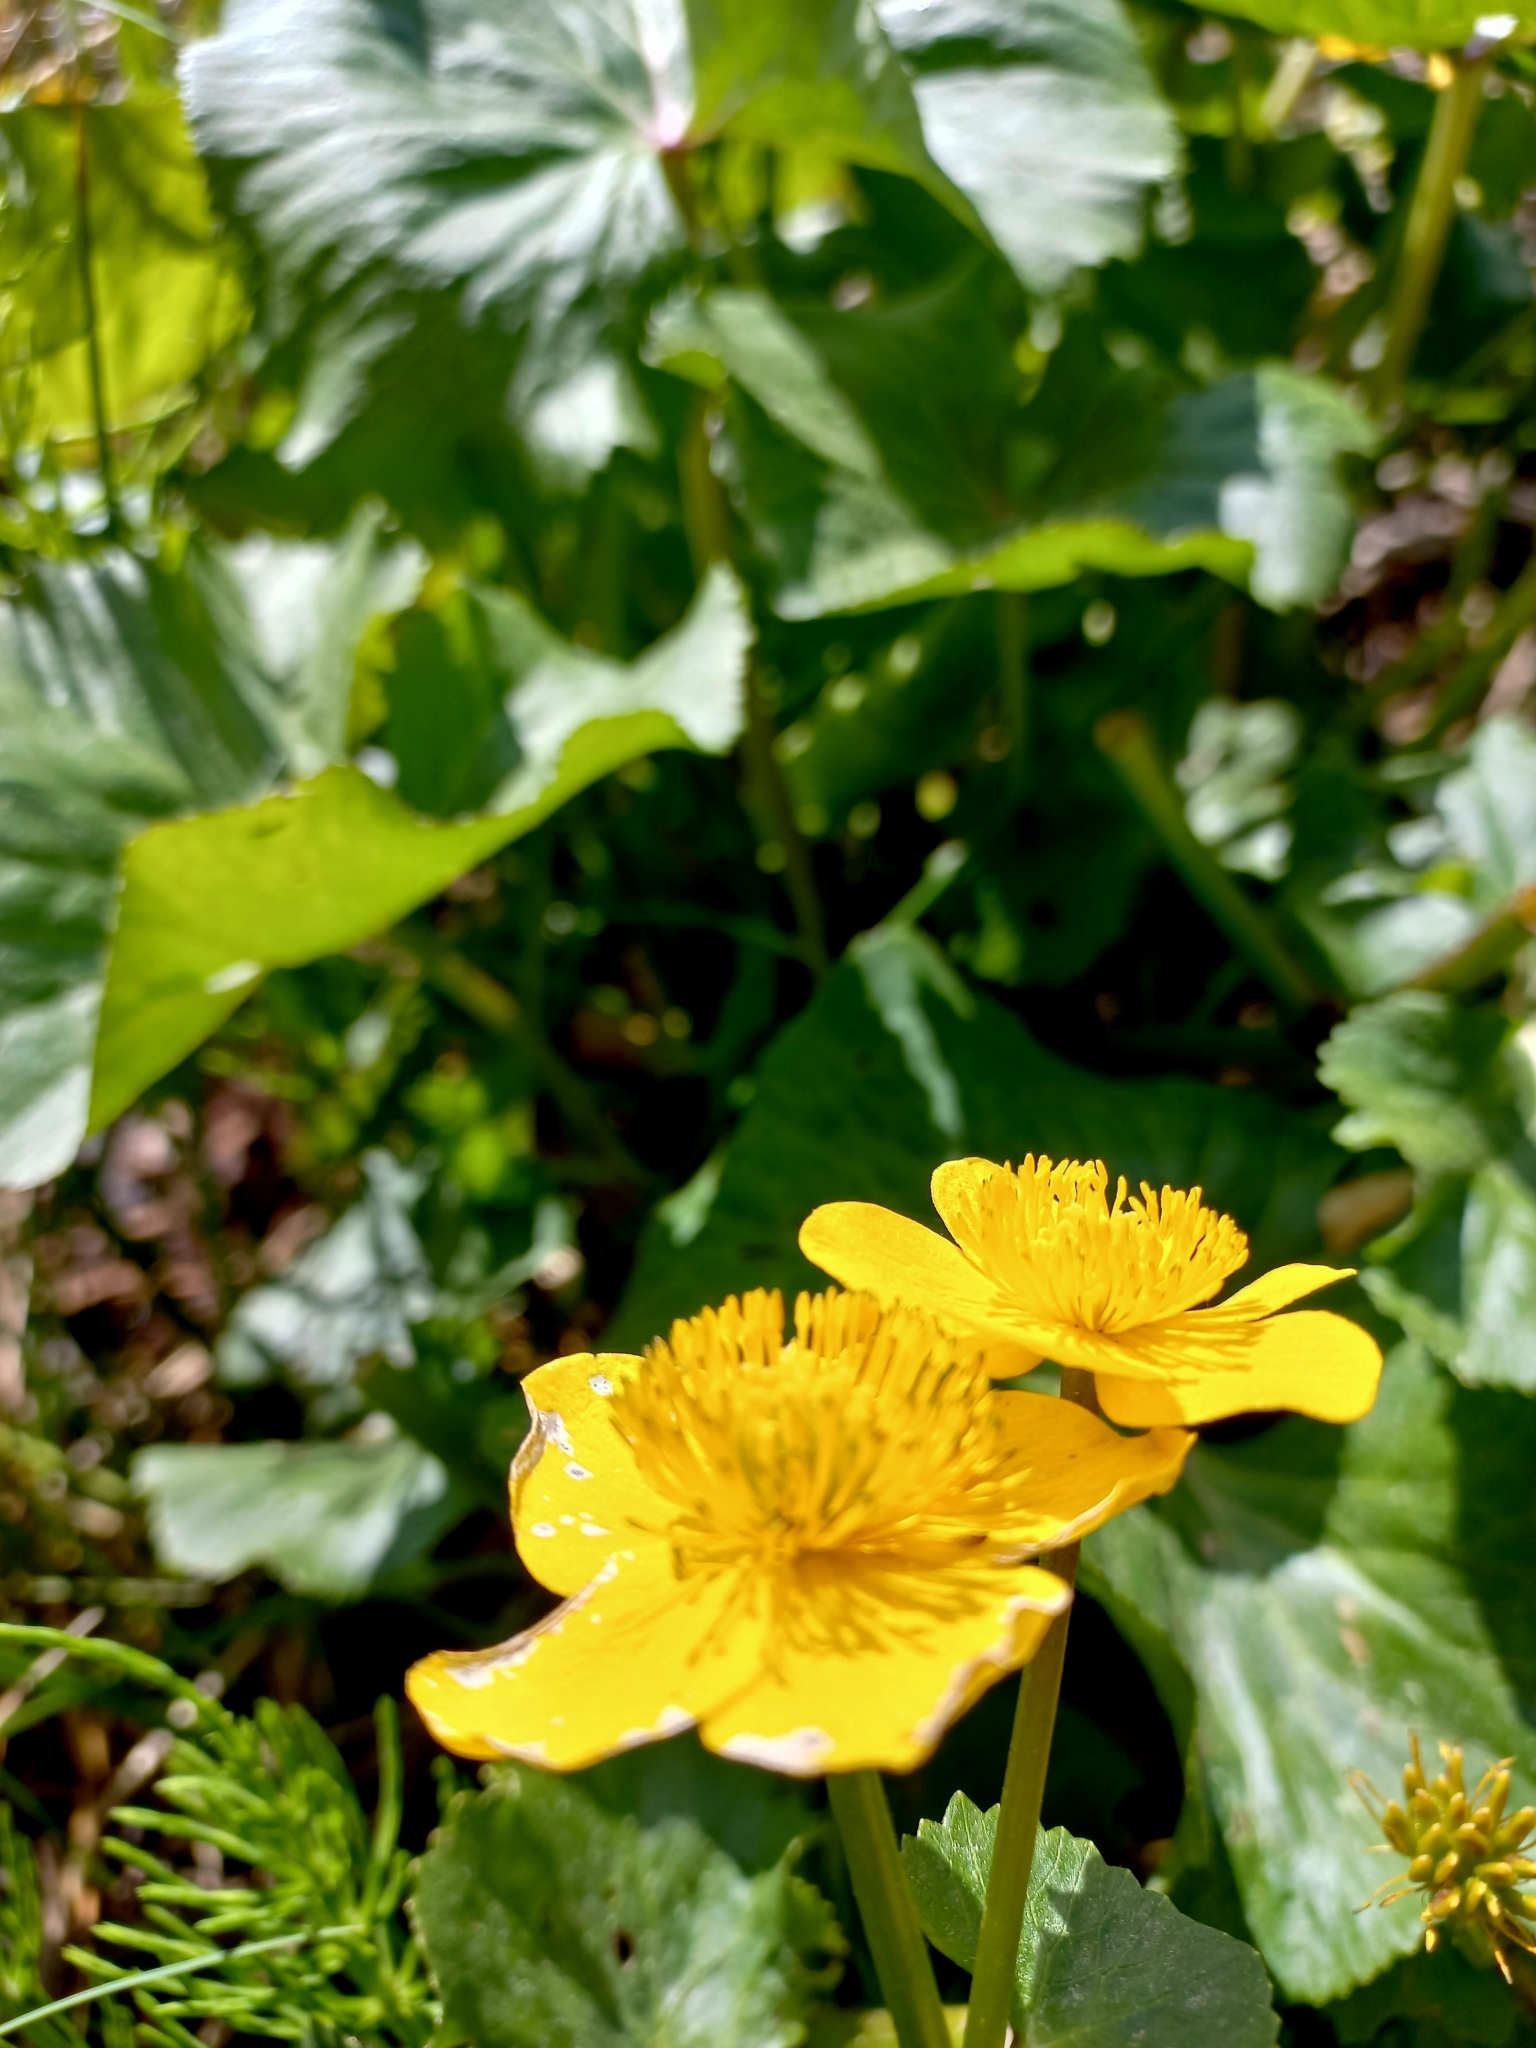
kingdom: Plantae
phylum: Tracheophyta
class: Magnoliopsida
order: Ranunculales
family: Ranunculaceae
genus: Caltha
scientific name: Caltha palustris
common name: Marsh marigold
